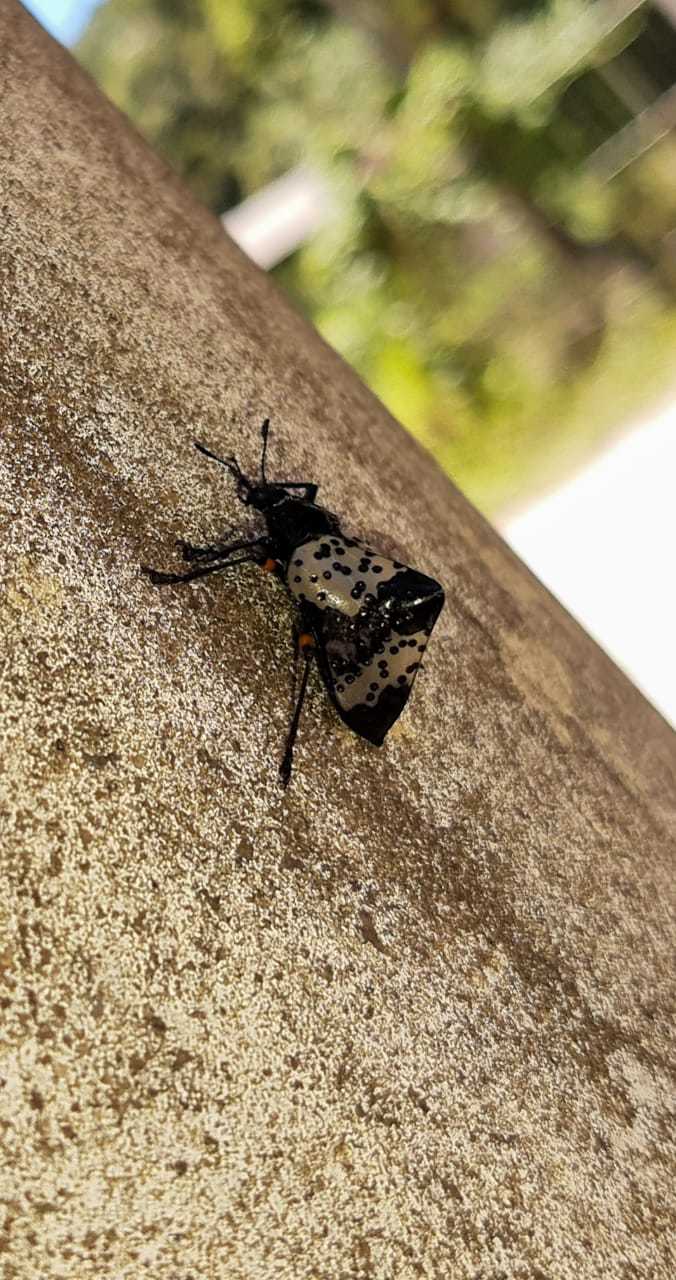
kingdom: Animalia
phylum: Arthropoda
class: Insecta
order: Coleoptera
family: Erotylidae
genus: Gibbifer
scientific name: Gibbifer
